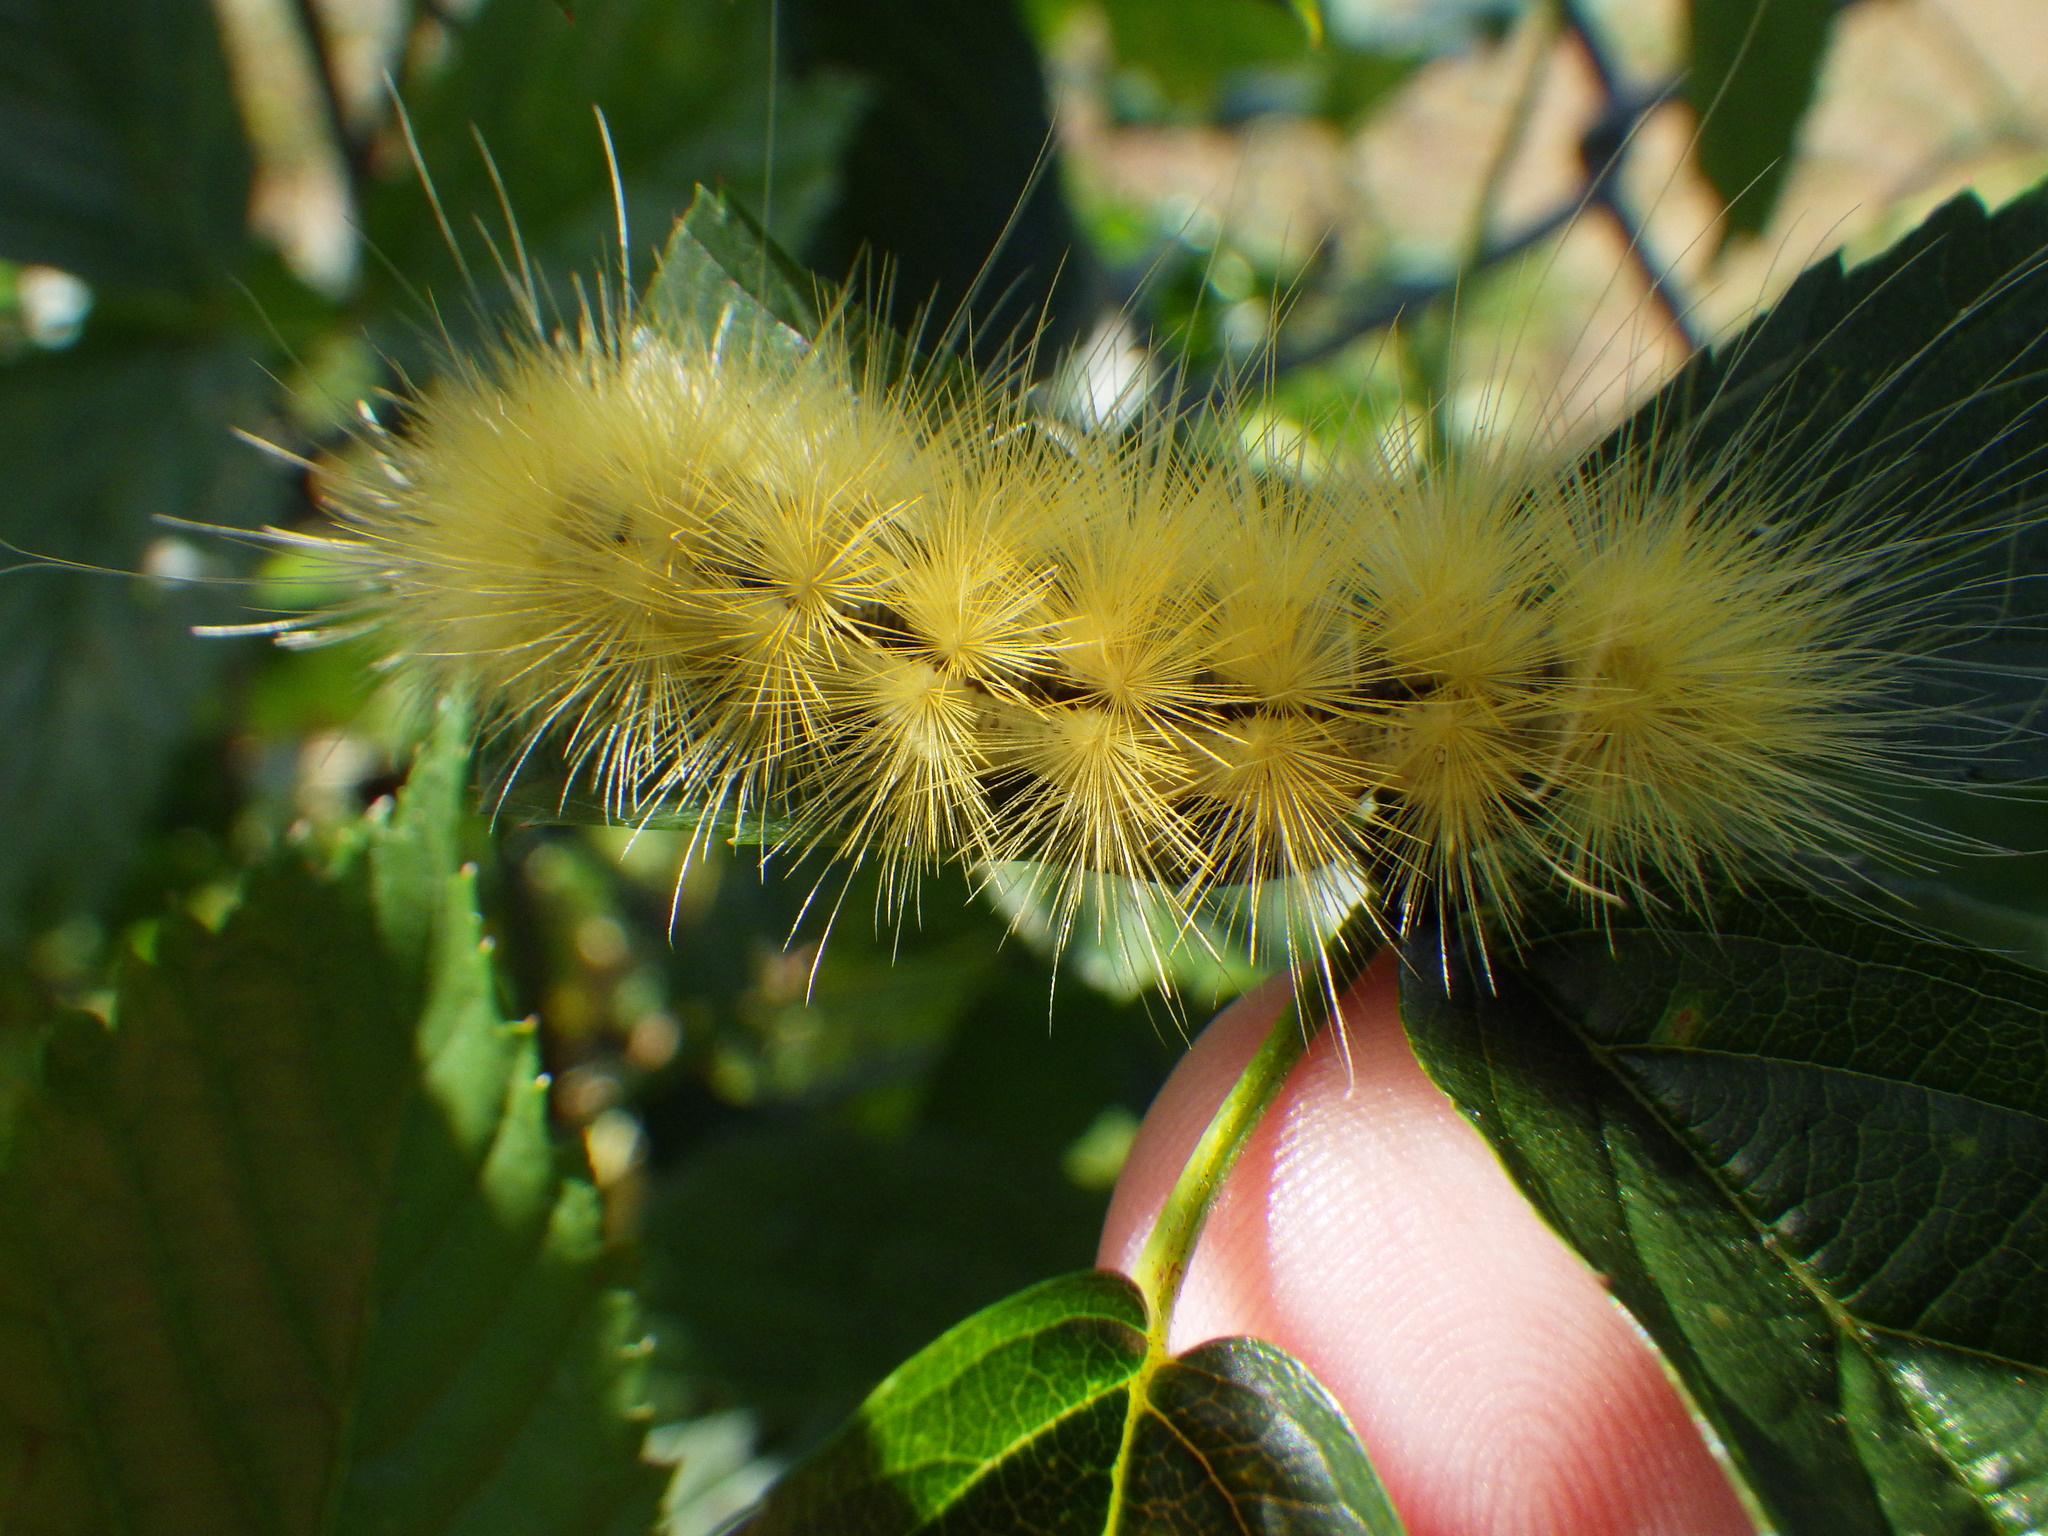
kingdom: Animalia
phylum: Arthropoda
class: Insecta
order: Lepidoptera
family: Erebidae
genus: Spilosoma
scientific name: Spilosoma virginica
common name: Virginia tiger moth
